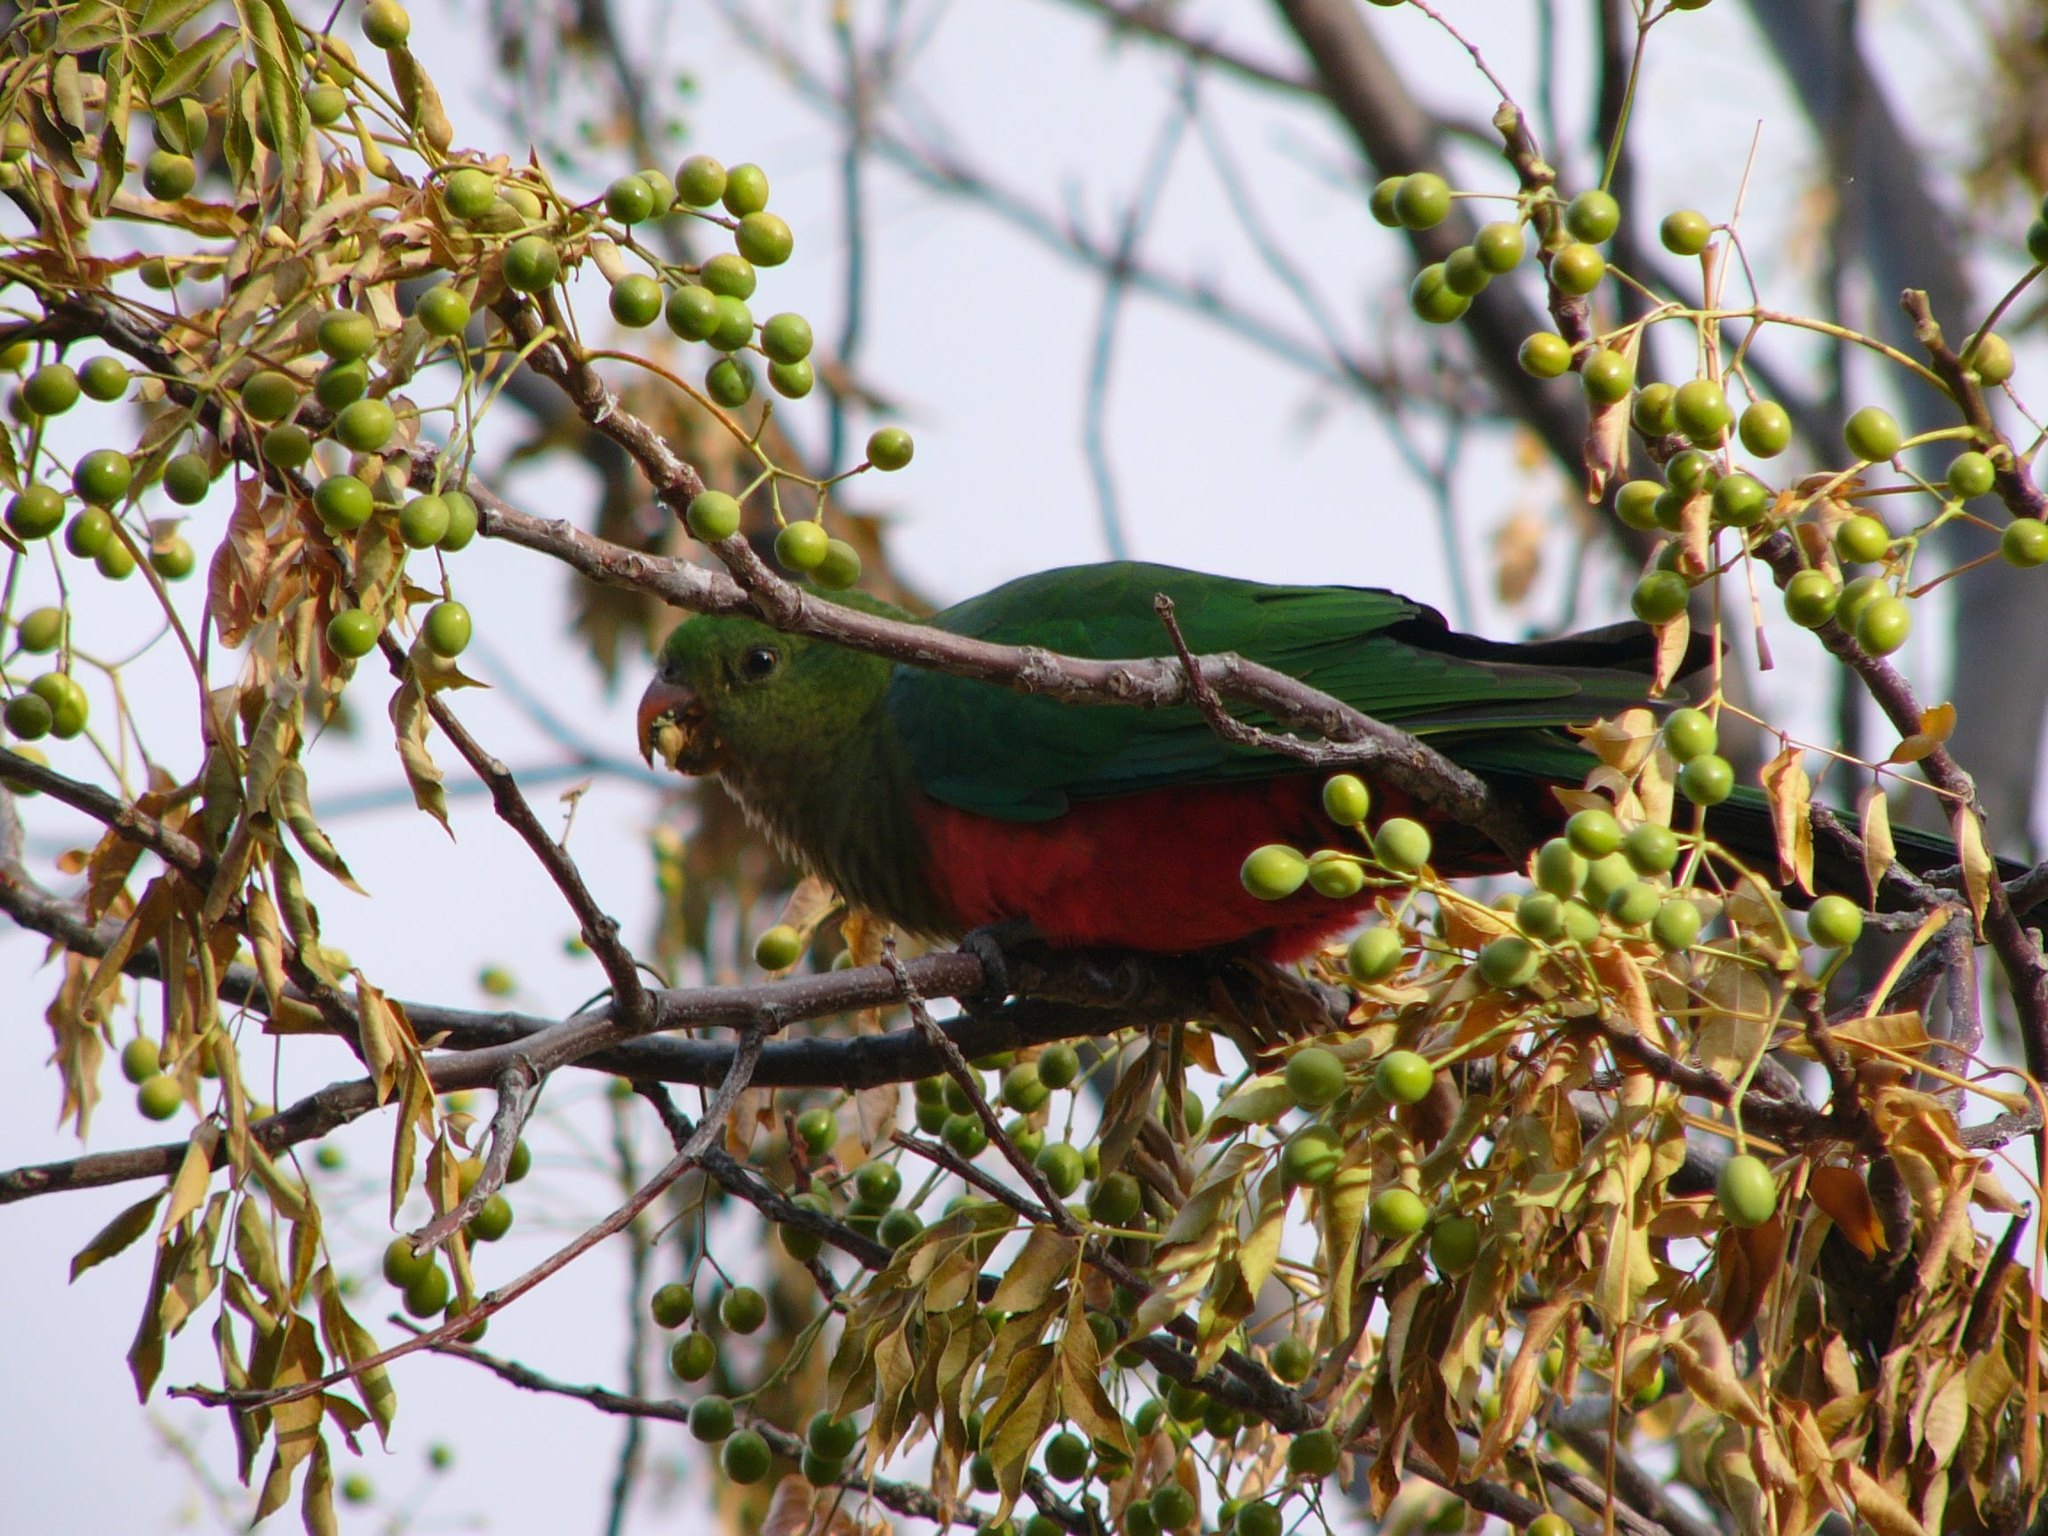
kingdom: Animalia
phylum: Chordata
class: Aves
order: Psittaciformes
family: Psittacidae
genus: Alisterus
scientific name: Alisterus scapularis
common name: Australian king parrot
